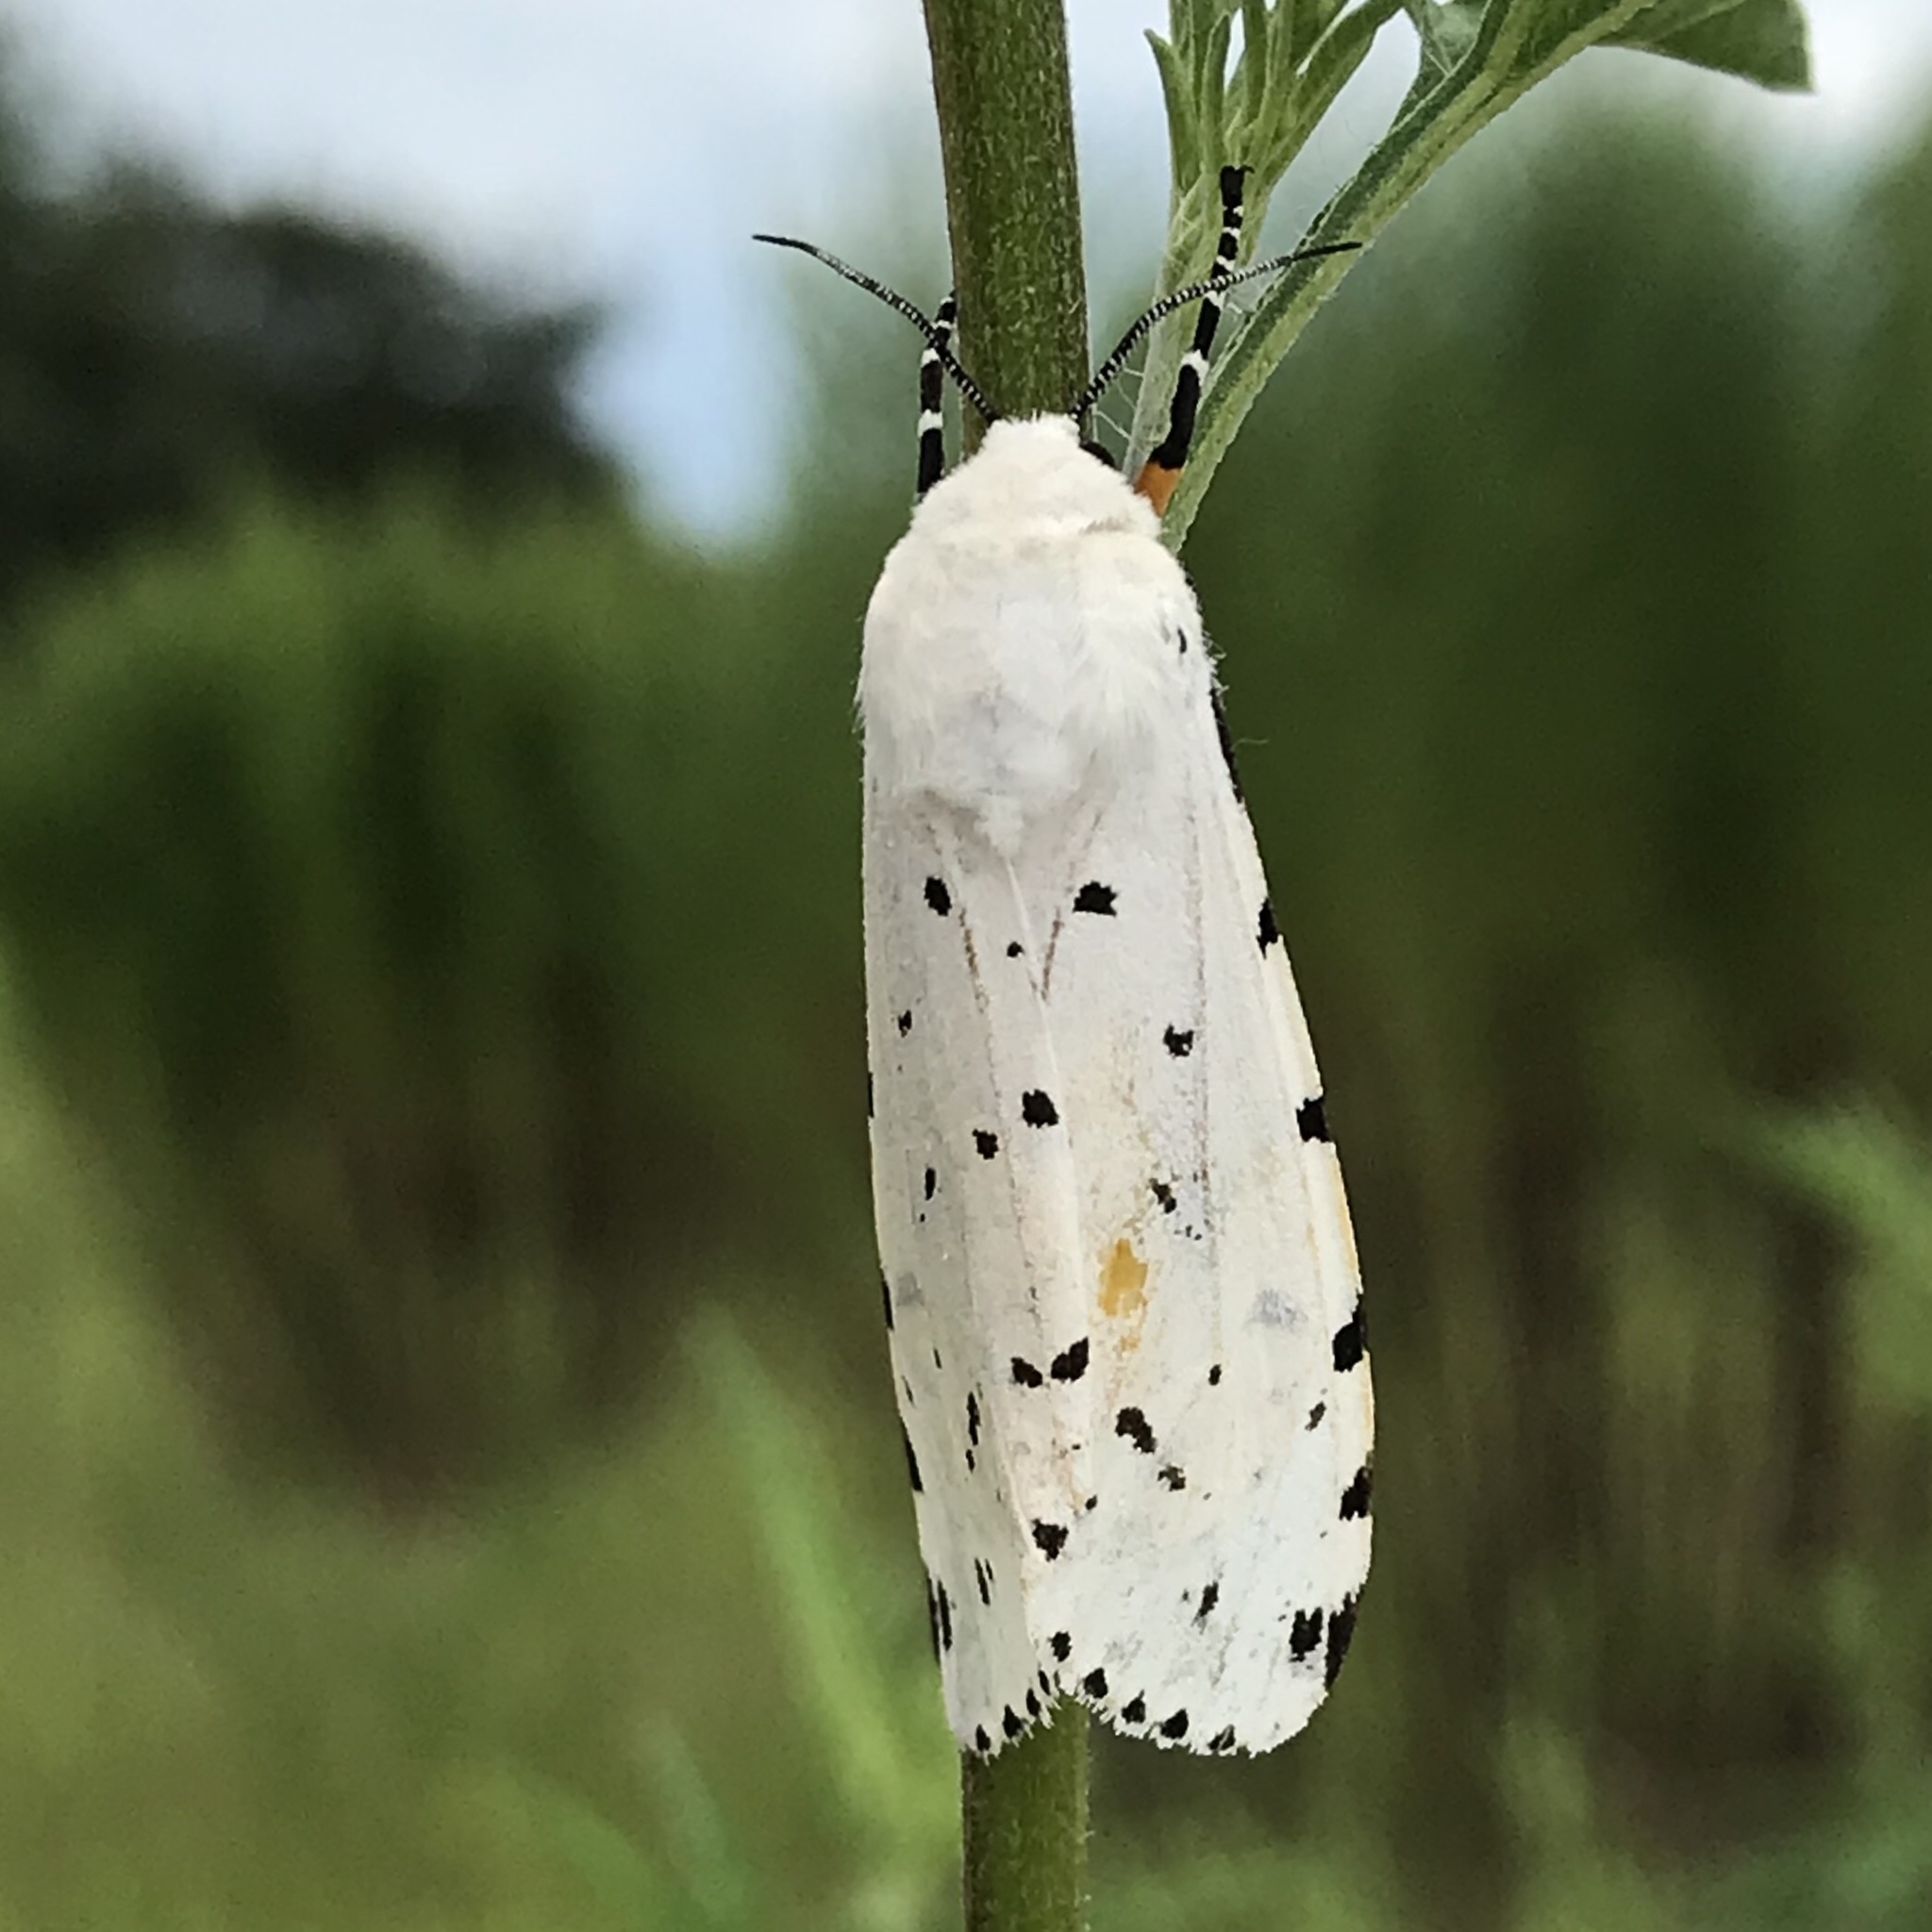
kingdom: Animalia
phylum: Arthropoda
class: Insecta
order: Lepidoptera
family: Erebidae
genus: Estigmene
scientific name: Estigmene acrea
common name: Salt marsh moth
